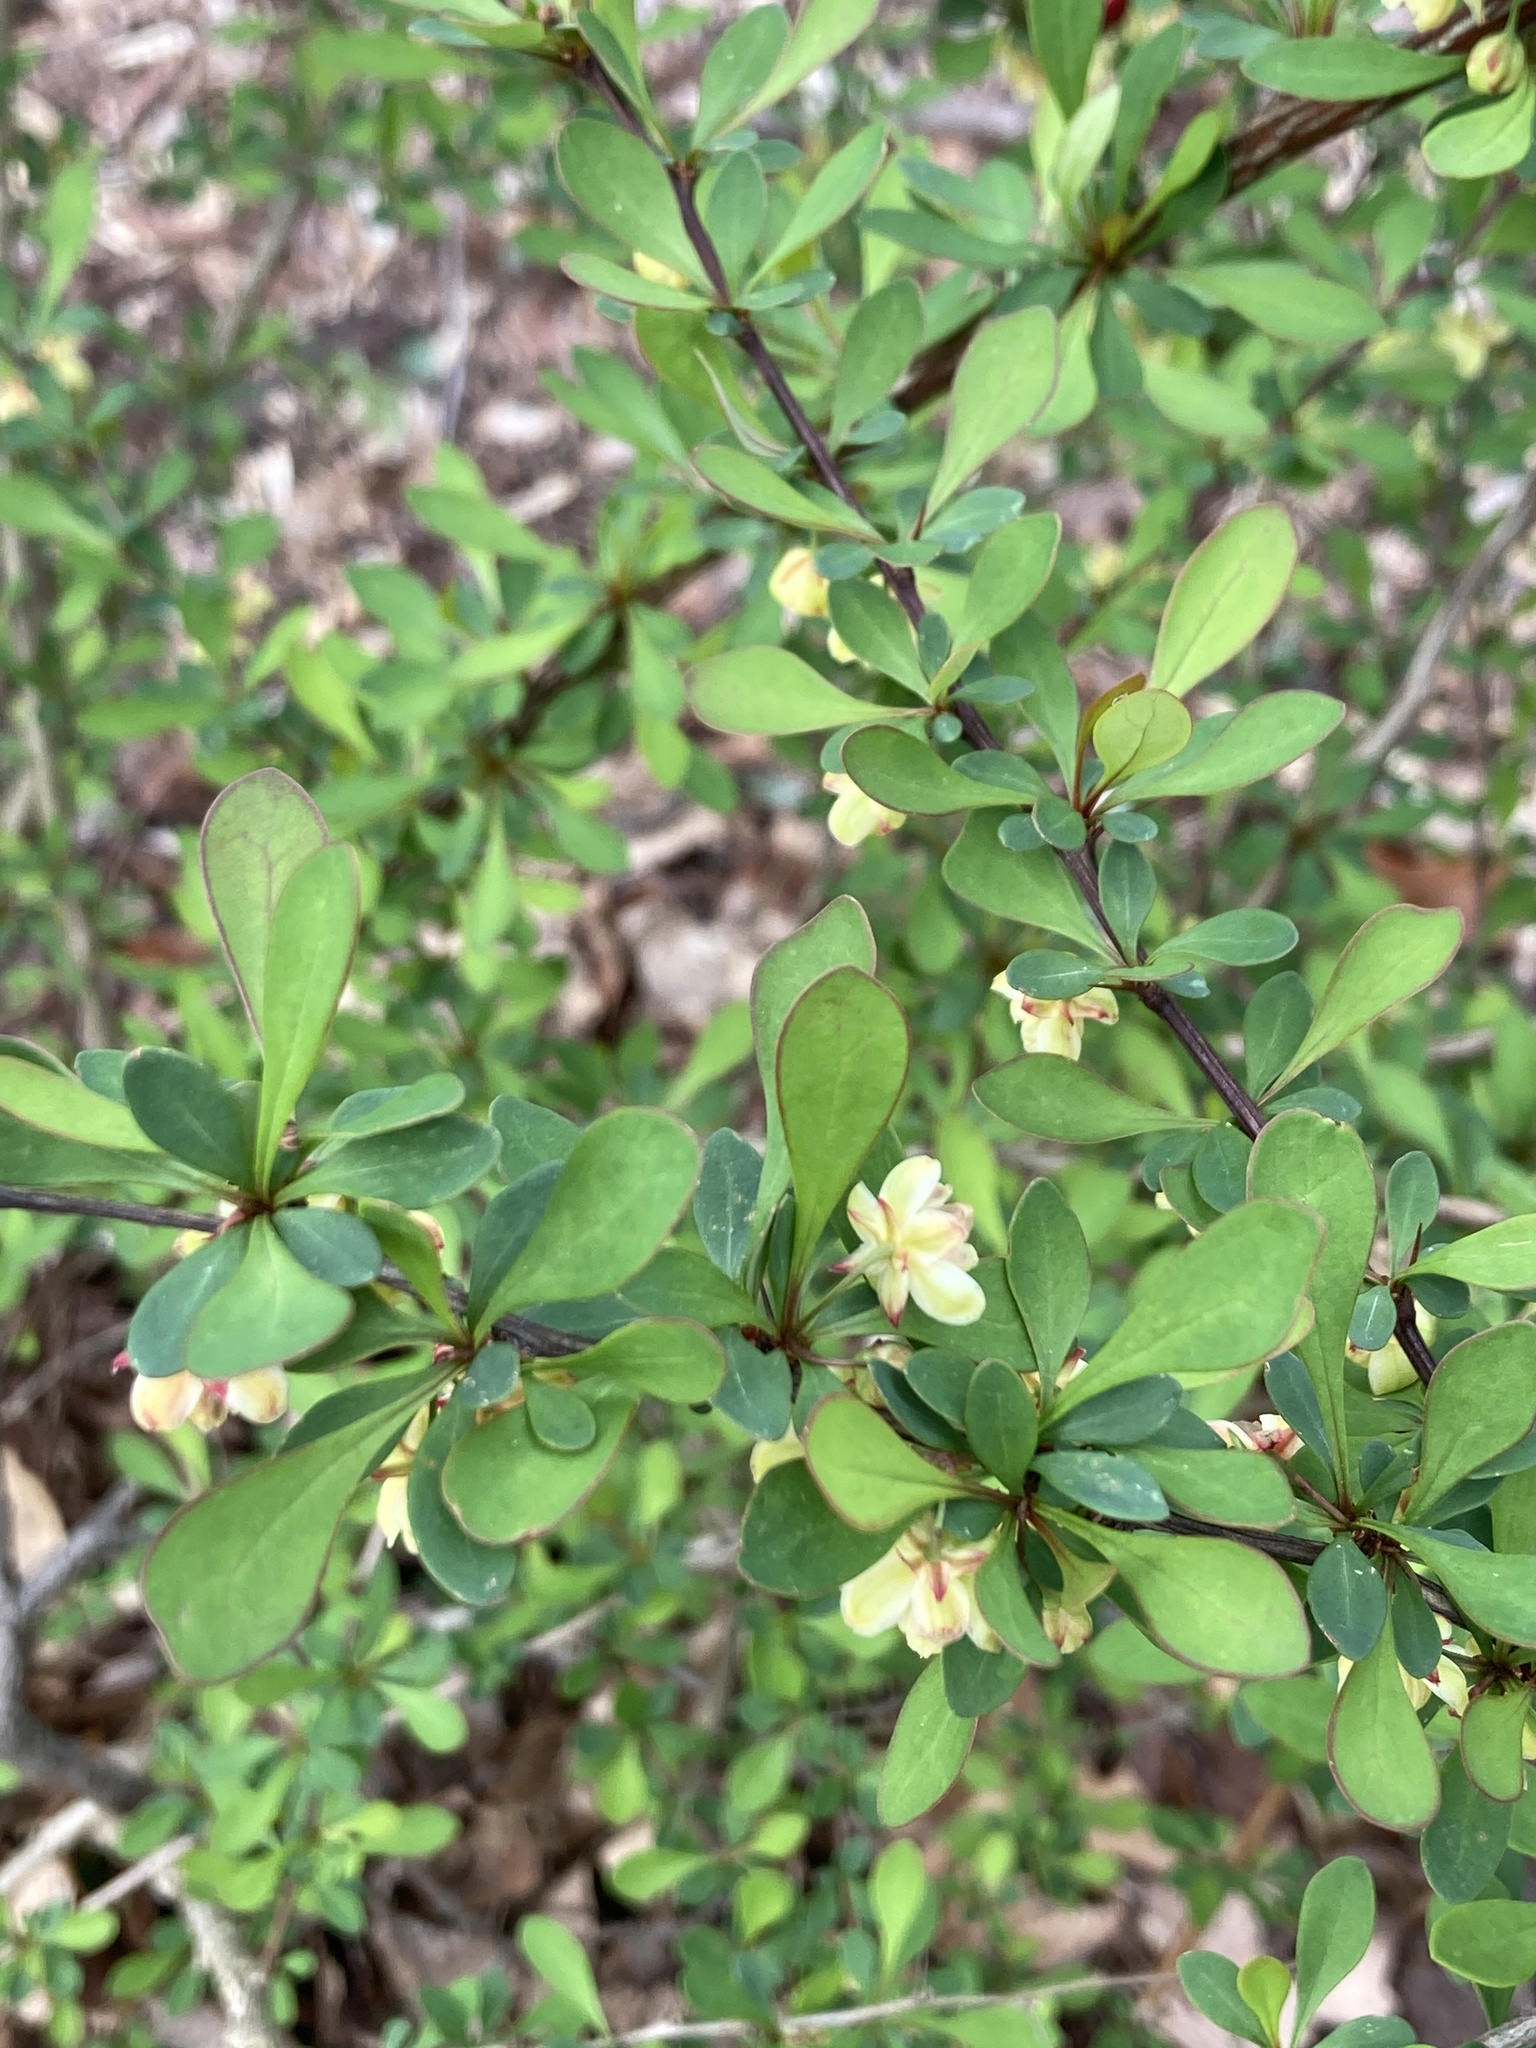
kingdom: Plantae
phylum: Tracheophyta
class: Magnoliopsida
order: Ranunculales
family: Berberidaceae
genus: Berberis
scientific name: Berberis thunbergii
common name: Japanese barberry
